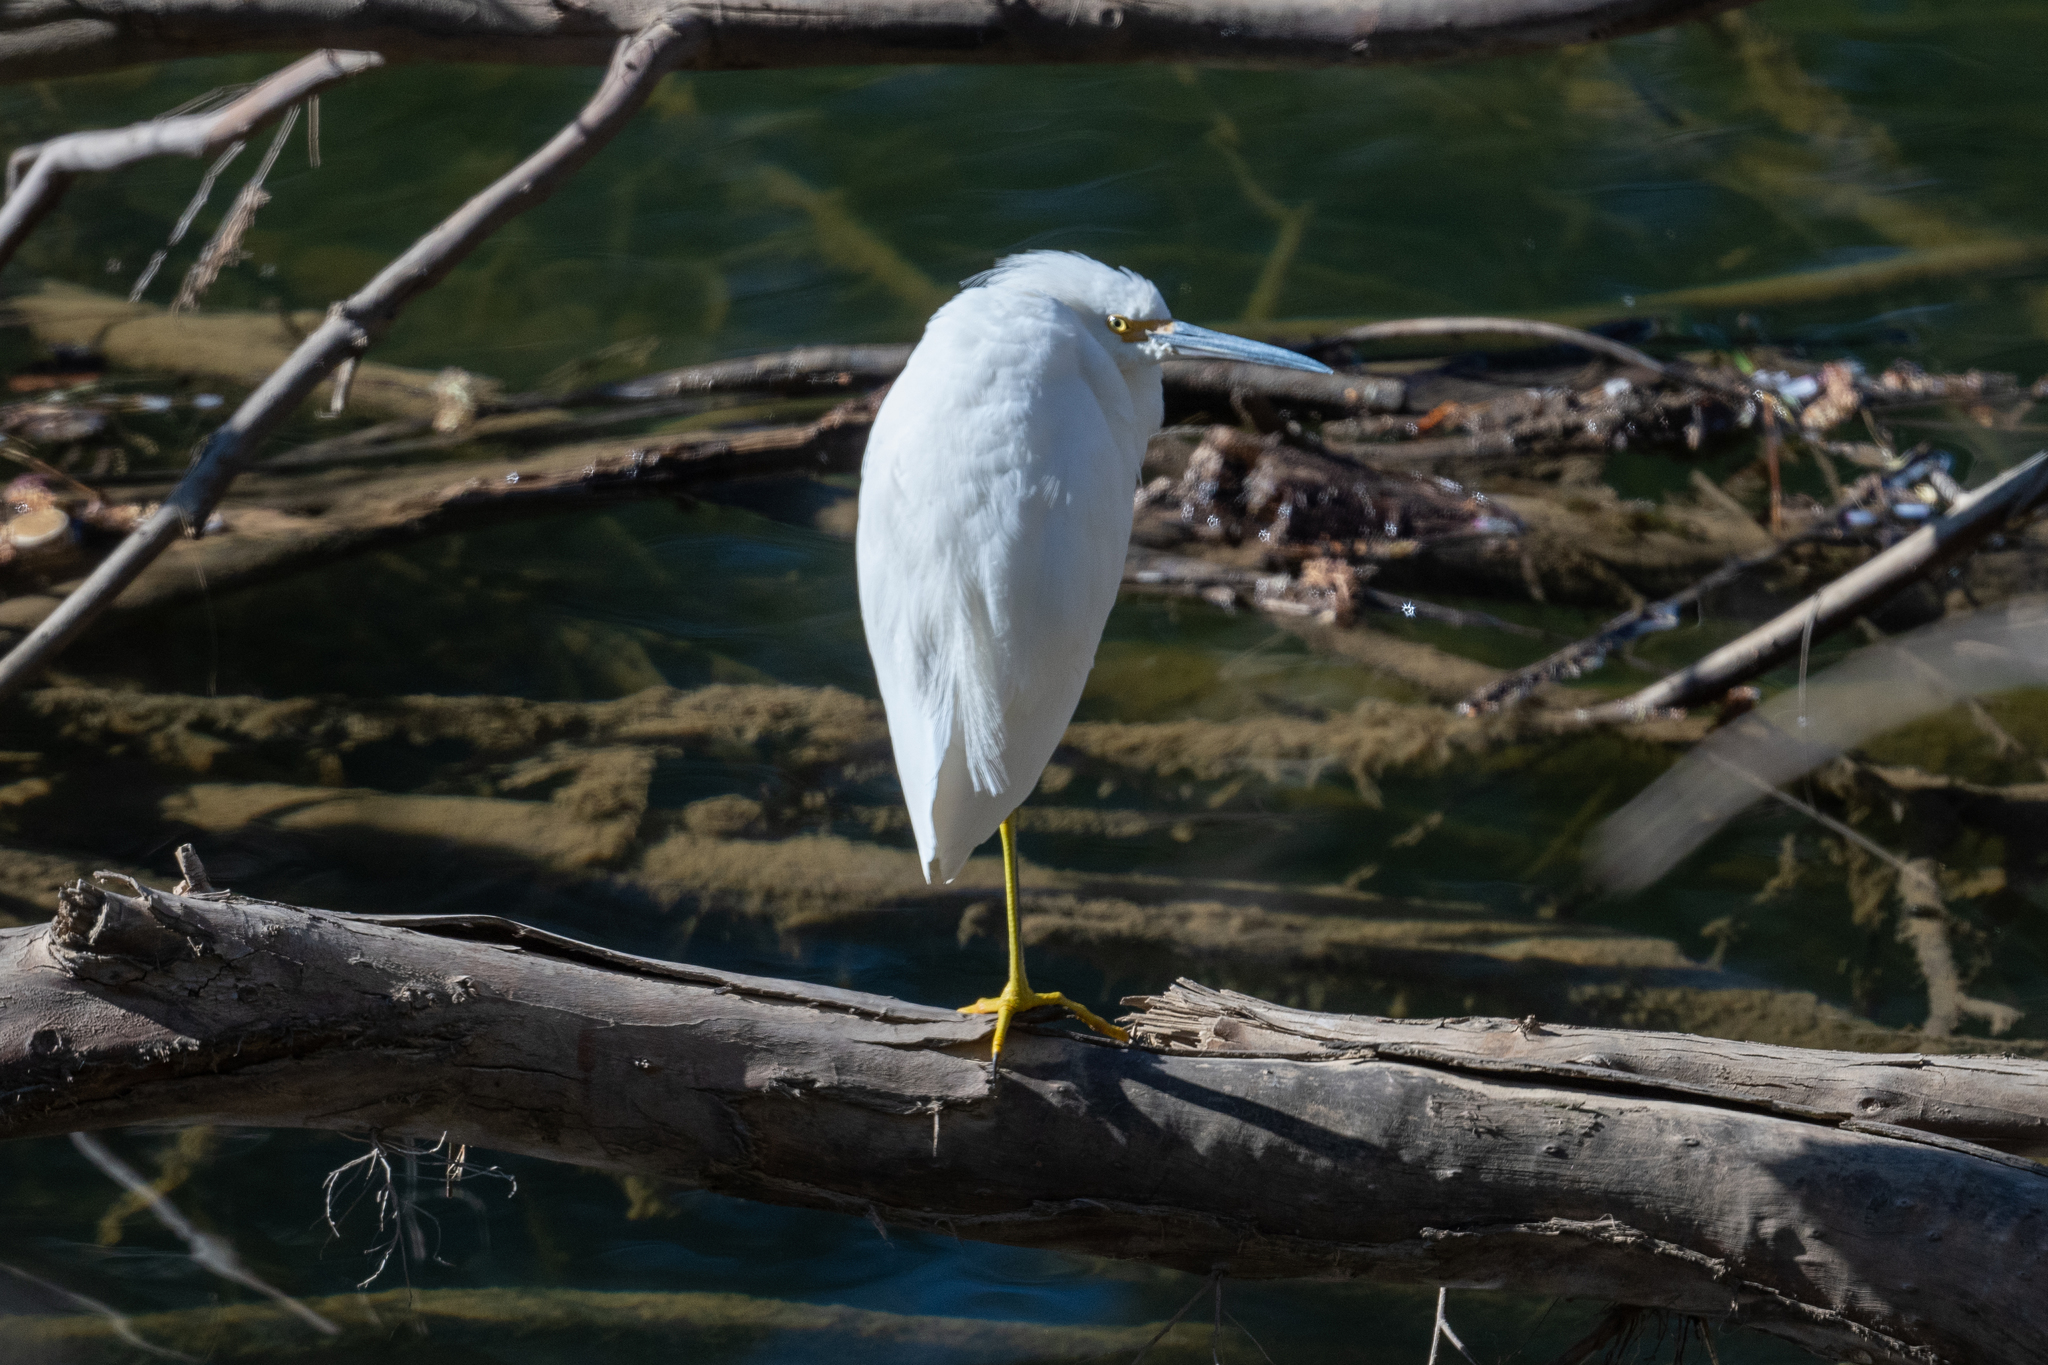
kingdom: Animalia
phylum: Chordata
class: Aves
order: Pelecaniformes
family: Ardeidae
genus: Egretta
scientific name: Egretta thula
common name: Snowy egret
